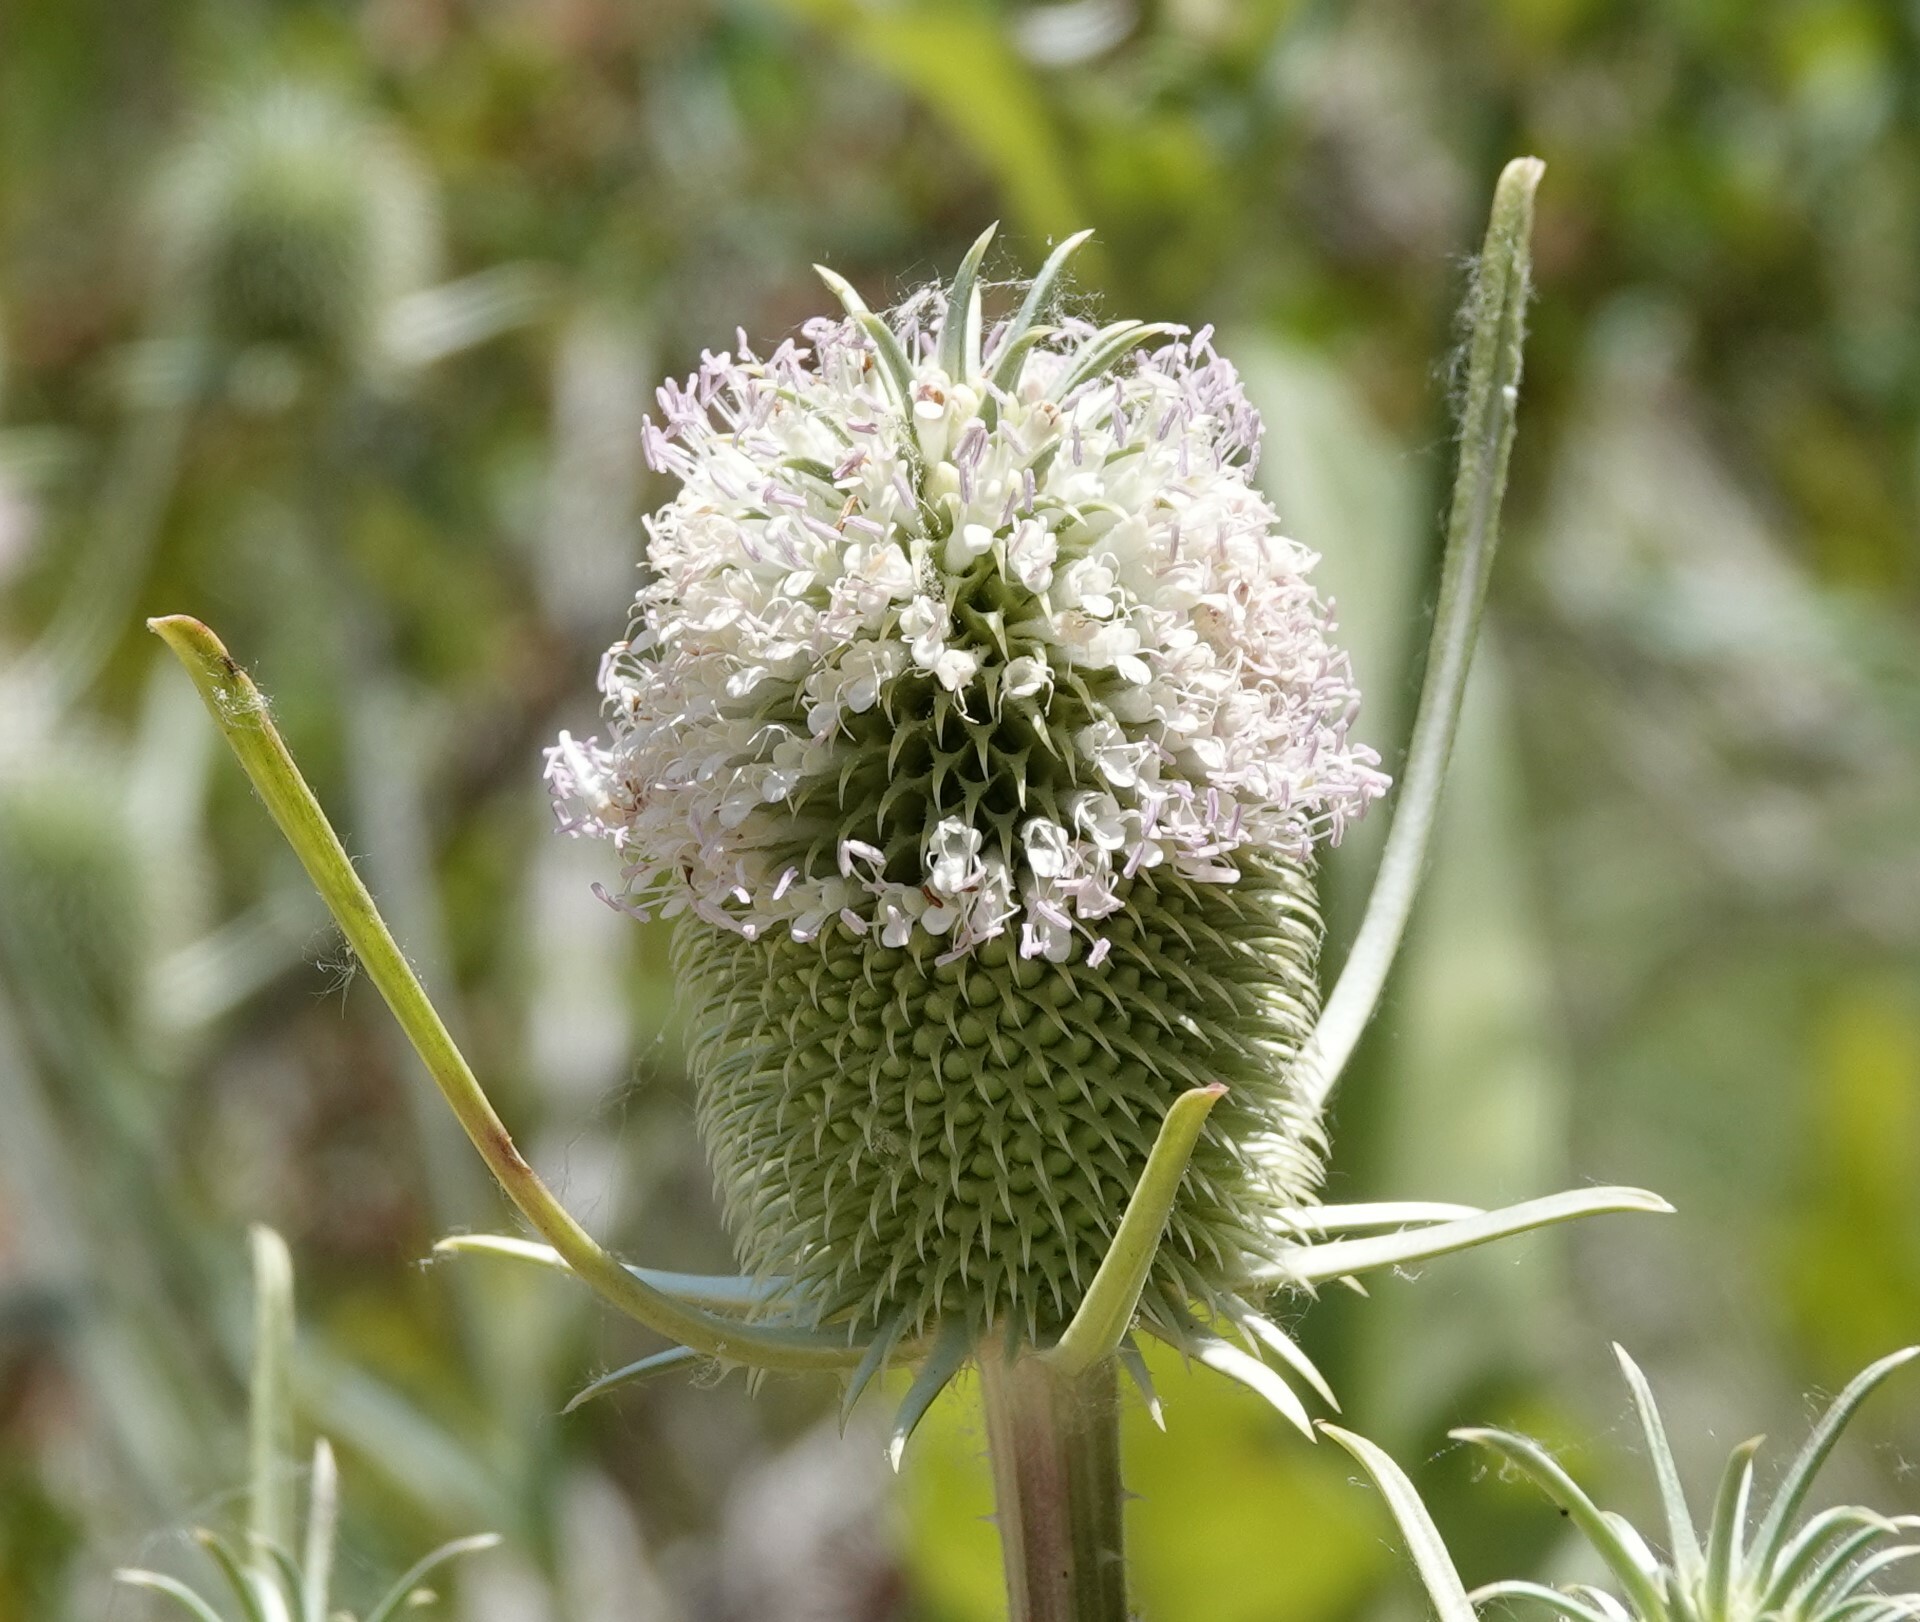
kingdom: Plantae
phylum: Tracheophyta
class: Magnoliopsida
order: Dipsacales
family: Caprifoliaceae
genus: Dipsacus
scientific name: Dipsacus sativus
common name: Fuller's teasel
